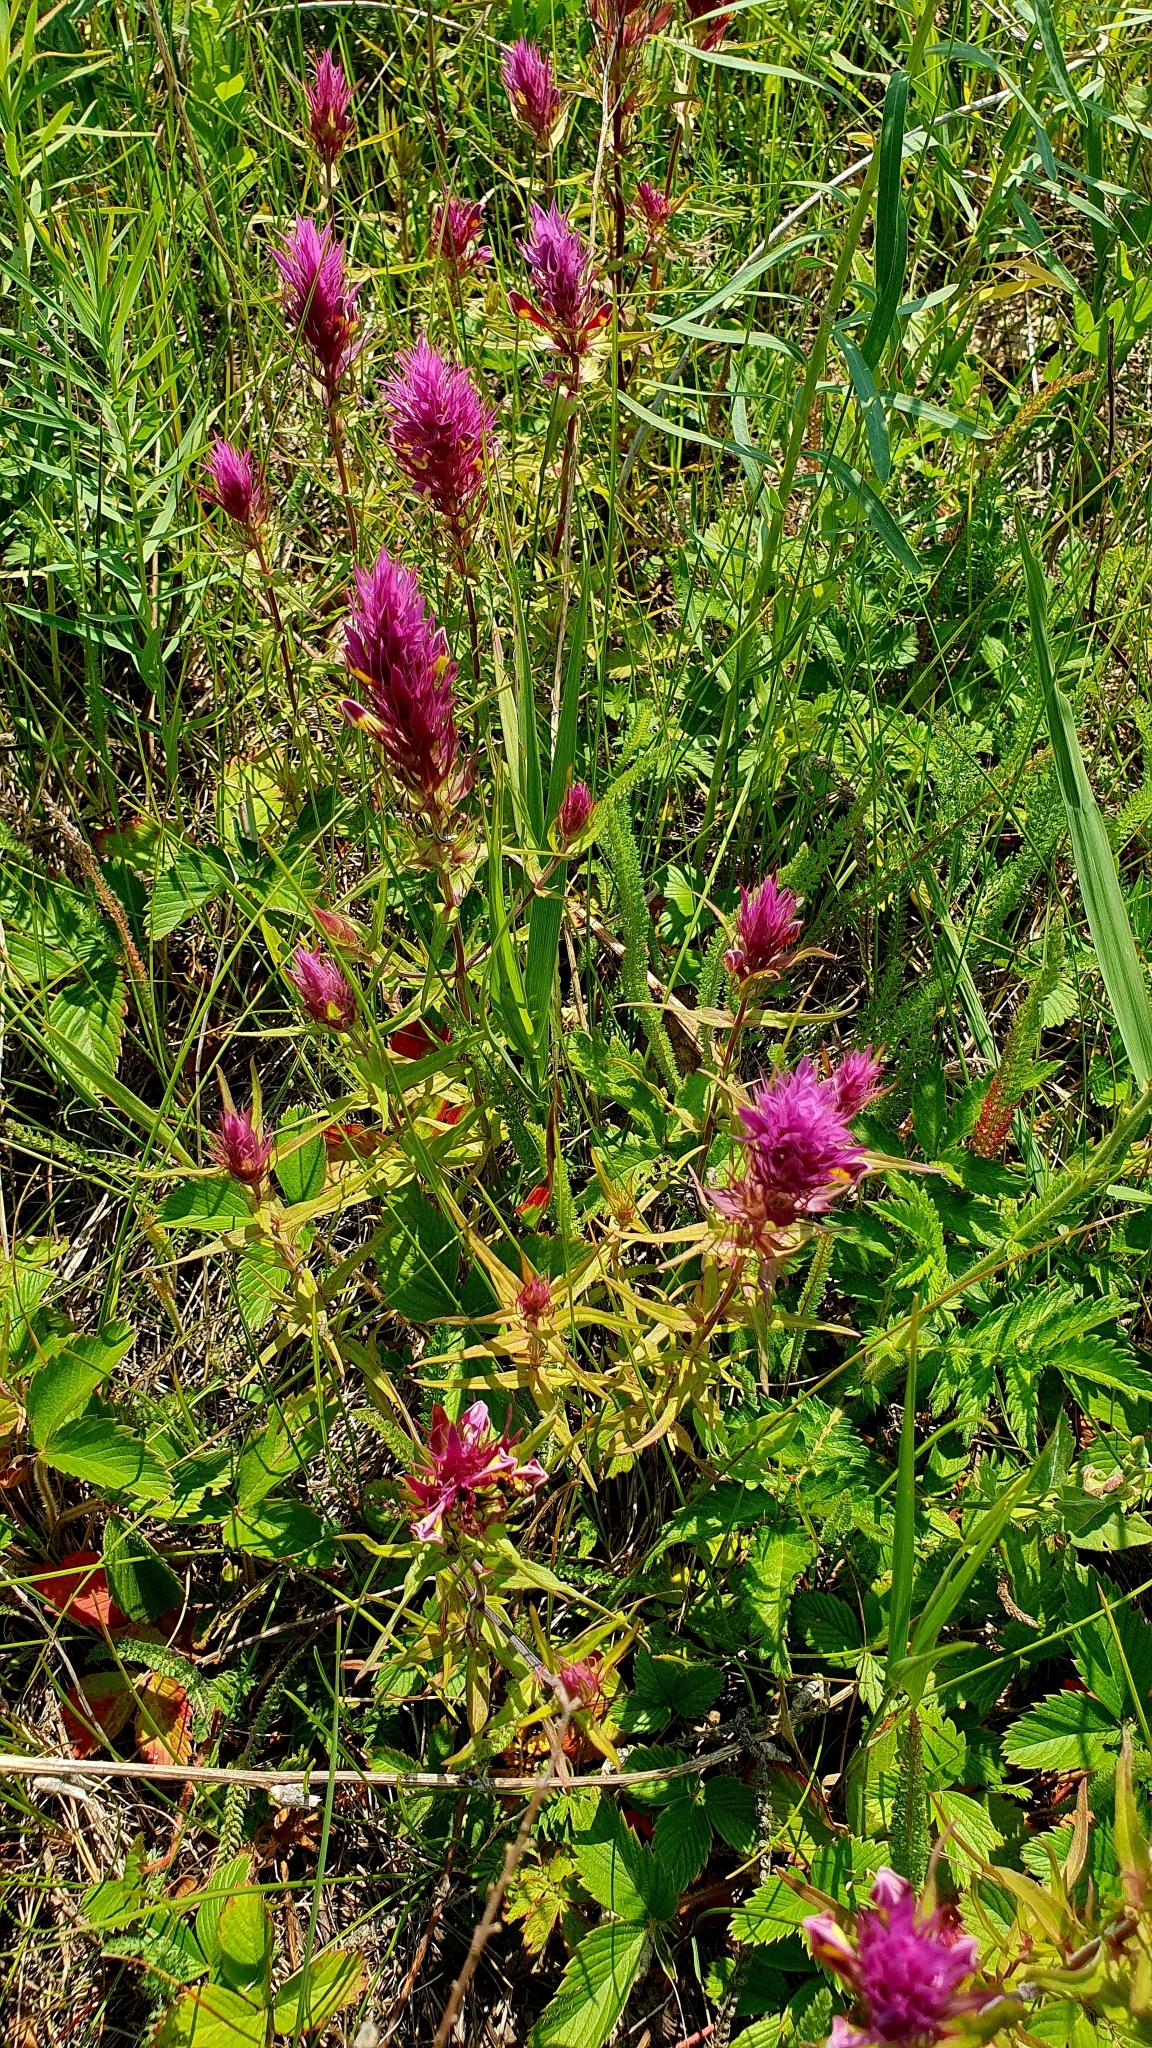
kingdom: Plantae
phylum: Tracheophyta
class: Magnoliopsida
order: Lamiales
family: Orobanchaceae
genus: Melampyrum
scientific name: Melampyrum arvense
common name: Field cow-wheat
